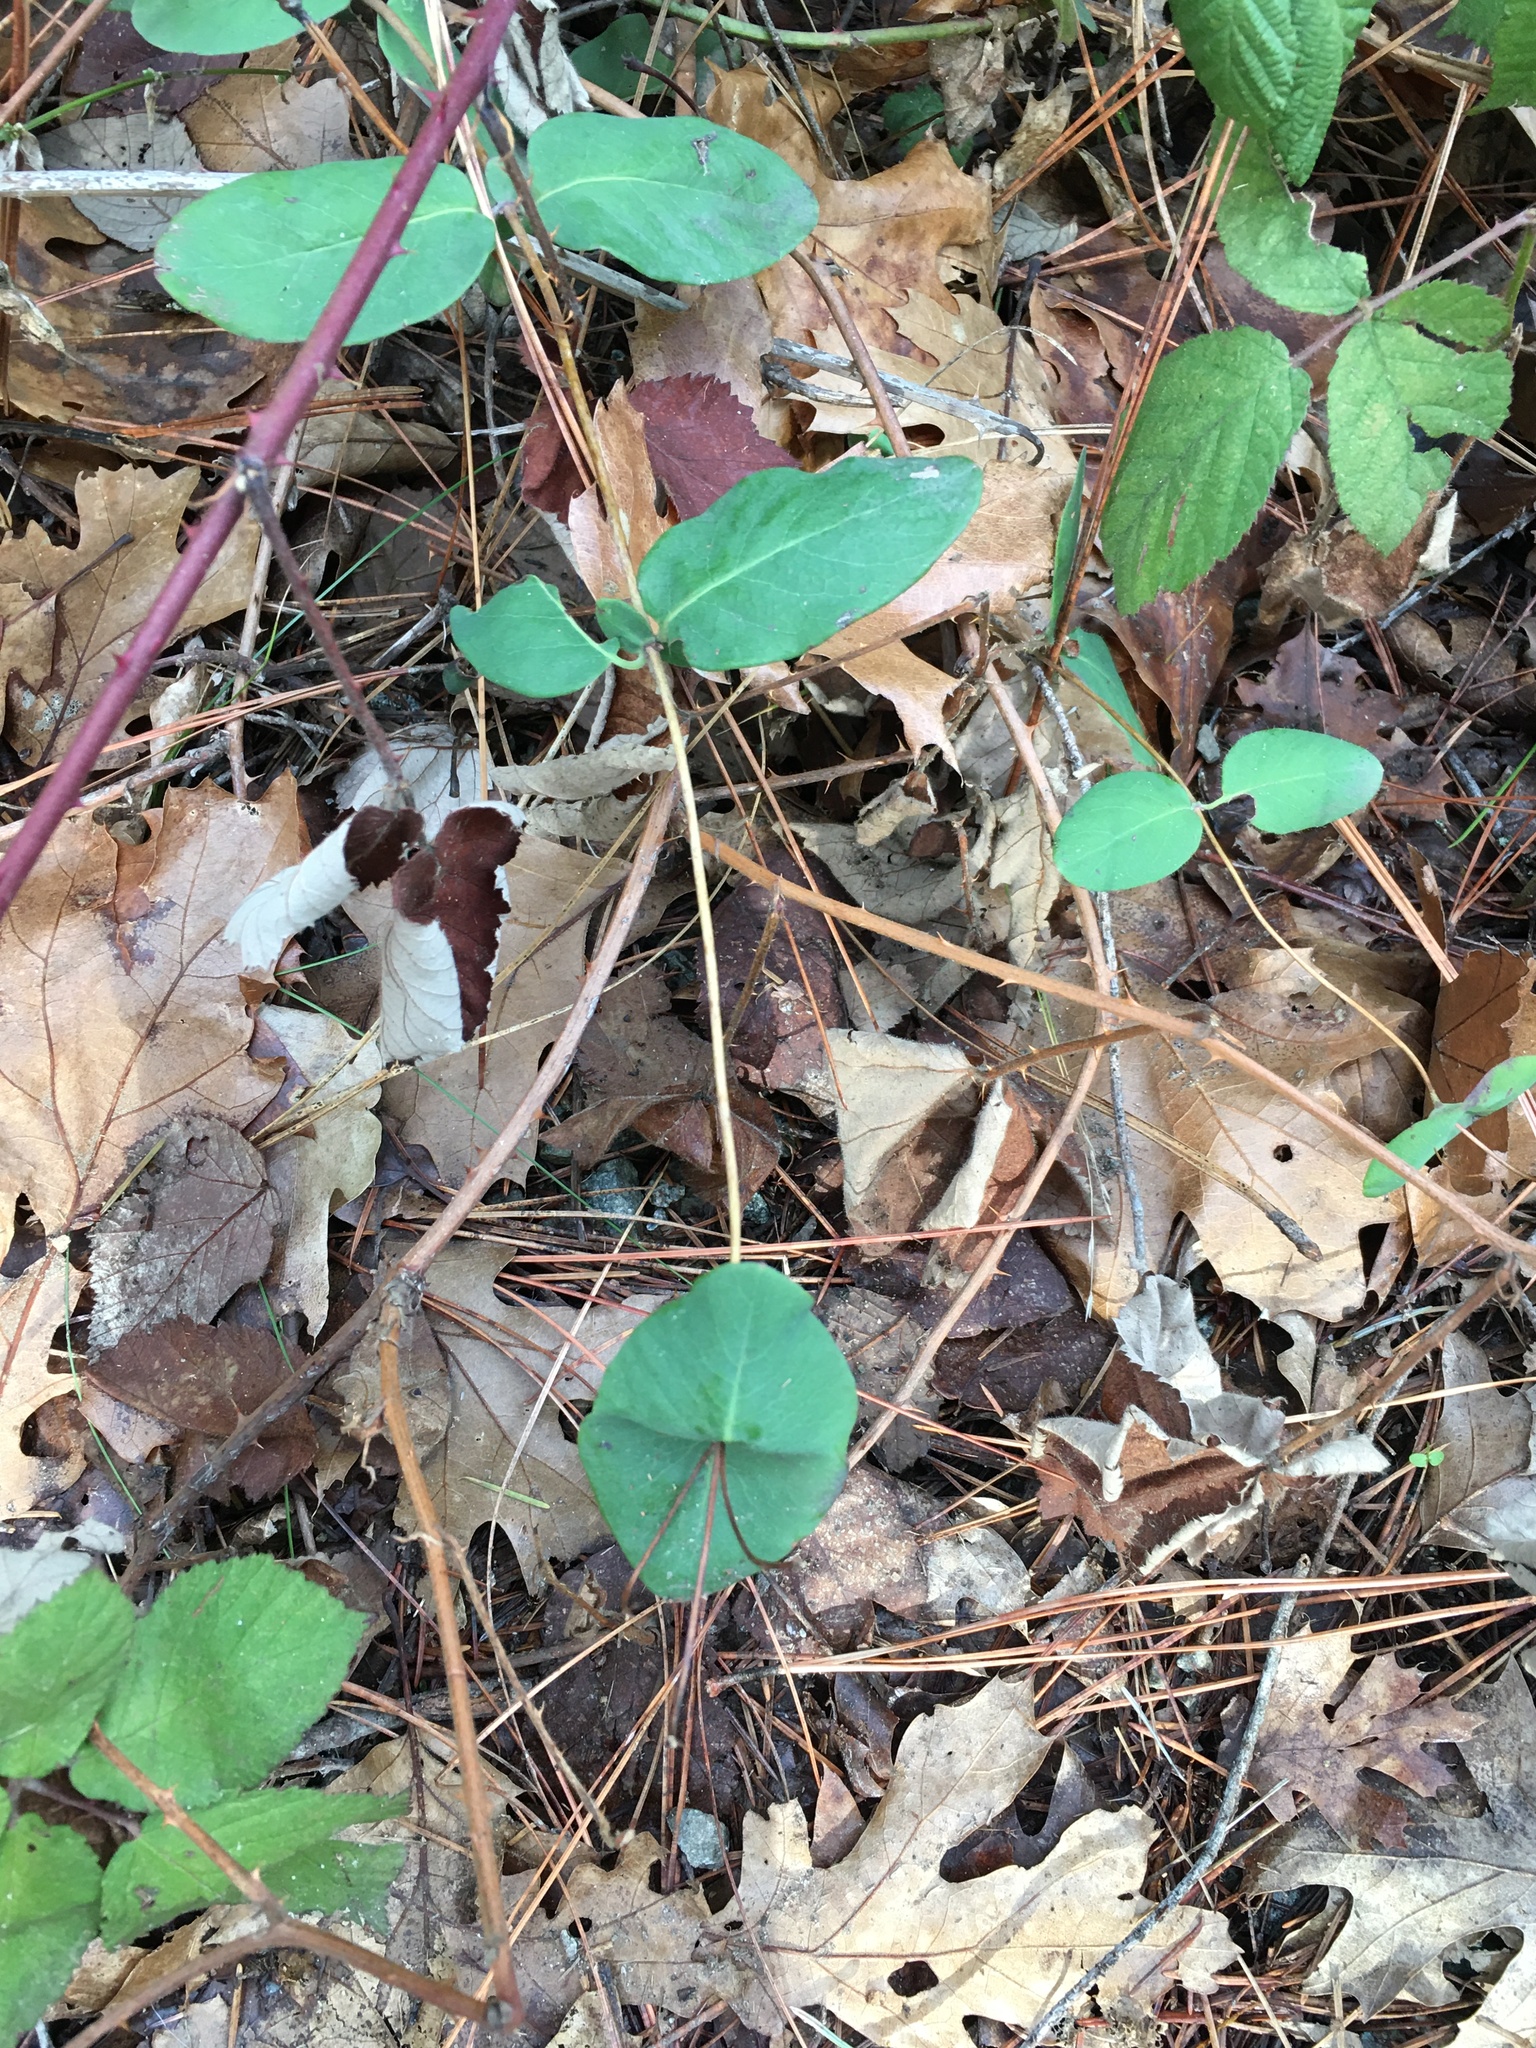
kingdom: Plantae
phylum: Tracheophyta
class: Magnoliopsida
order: Dipsacales
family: Caprifoliaceae
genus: Lonicera
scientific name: Lonicera hispidula
